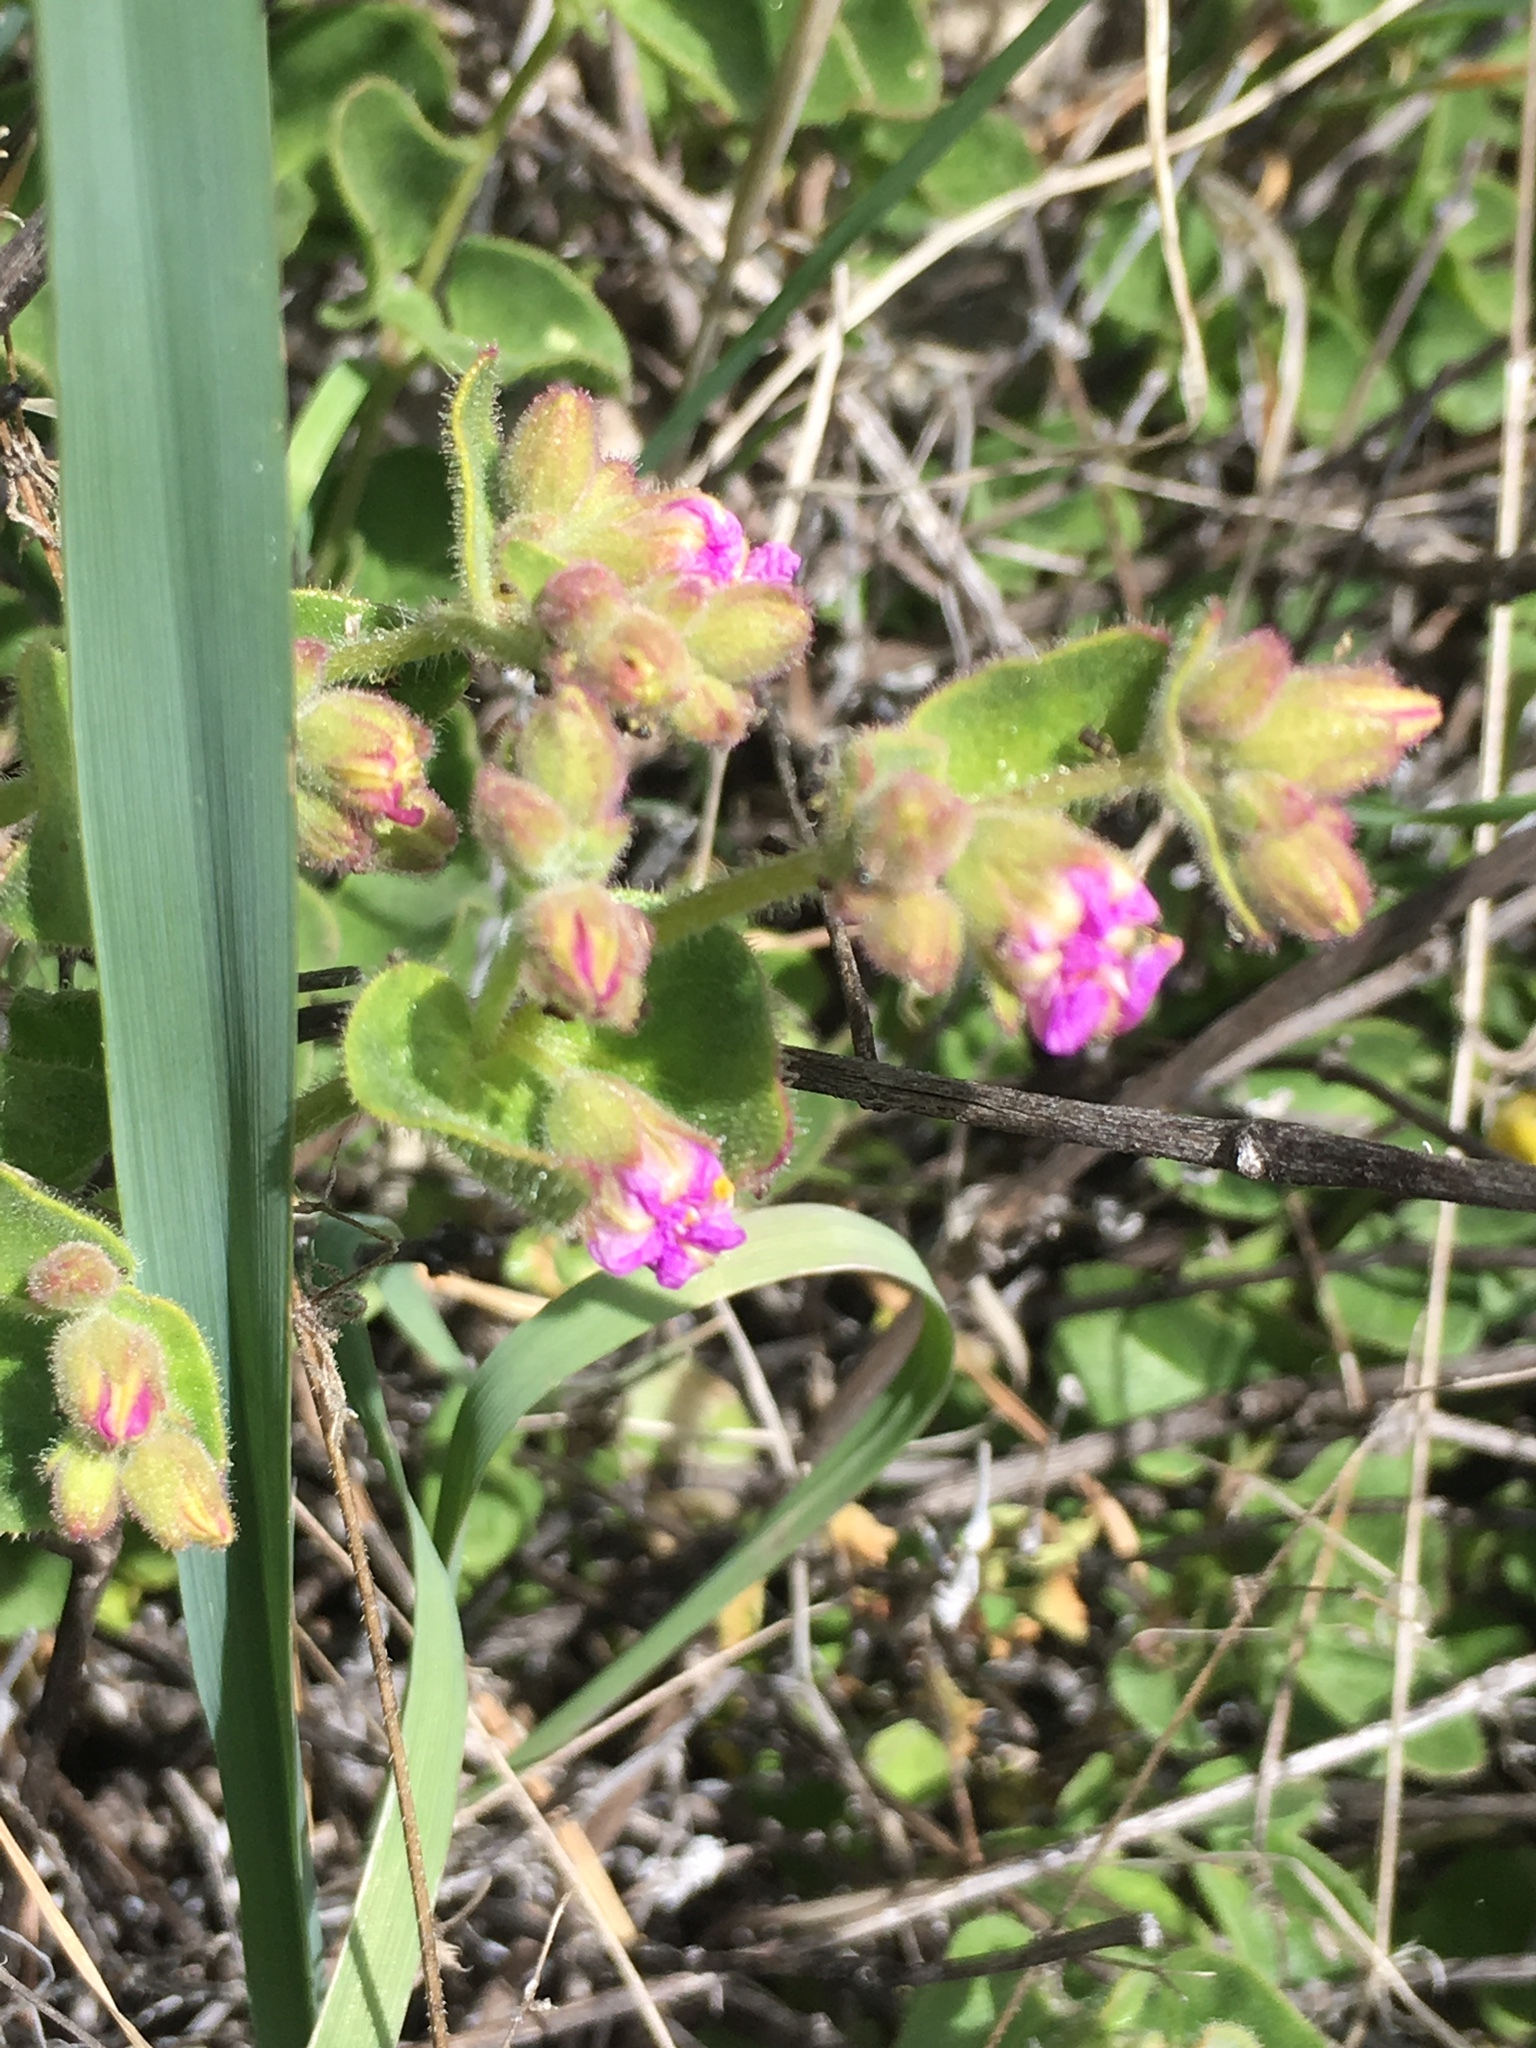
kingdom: Plantae
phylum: Tracheophyta
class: Magnoliopsida
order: Caryophyllales
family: Nyctaginaceae
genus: Mirabilis
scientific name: Mirabilis laevis
